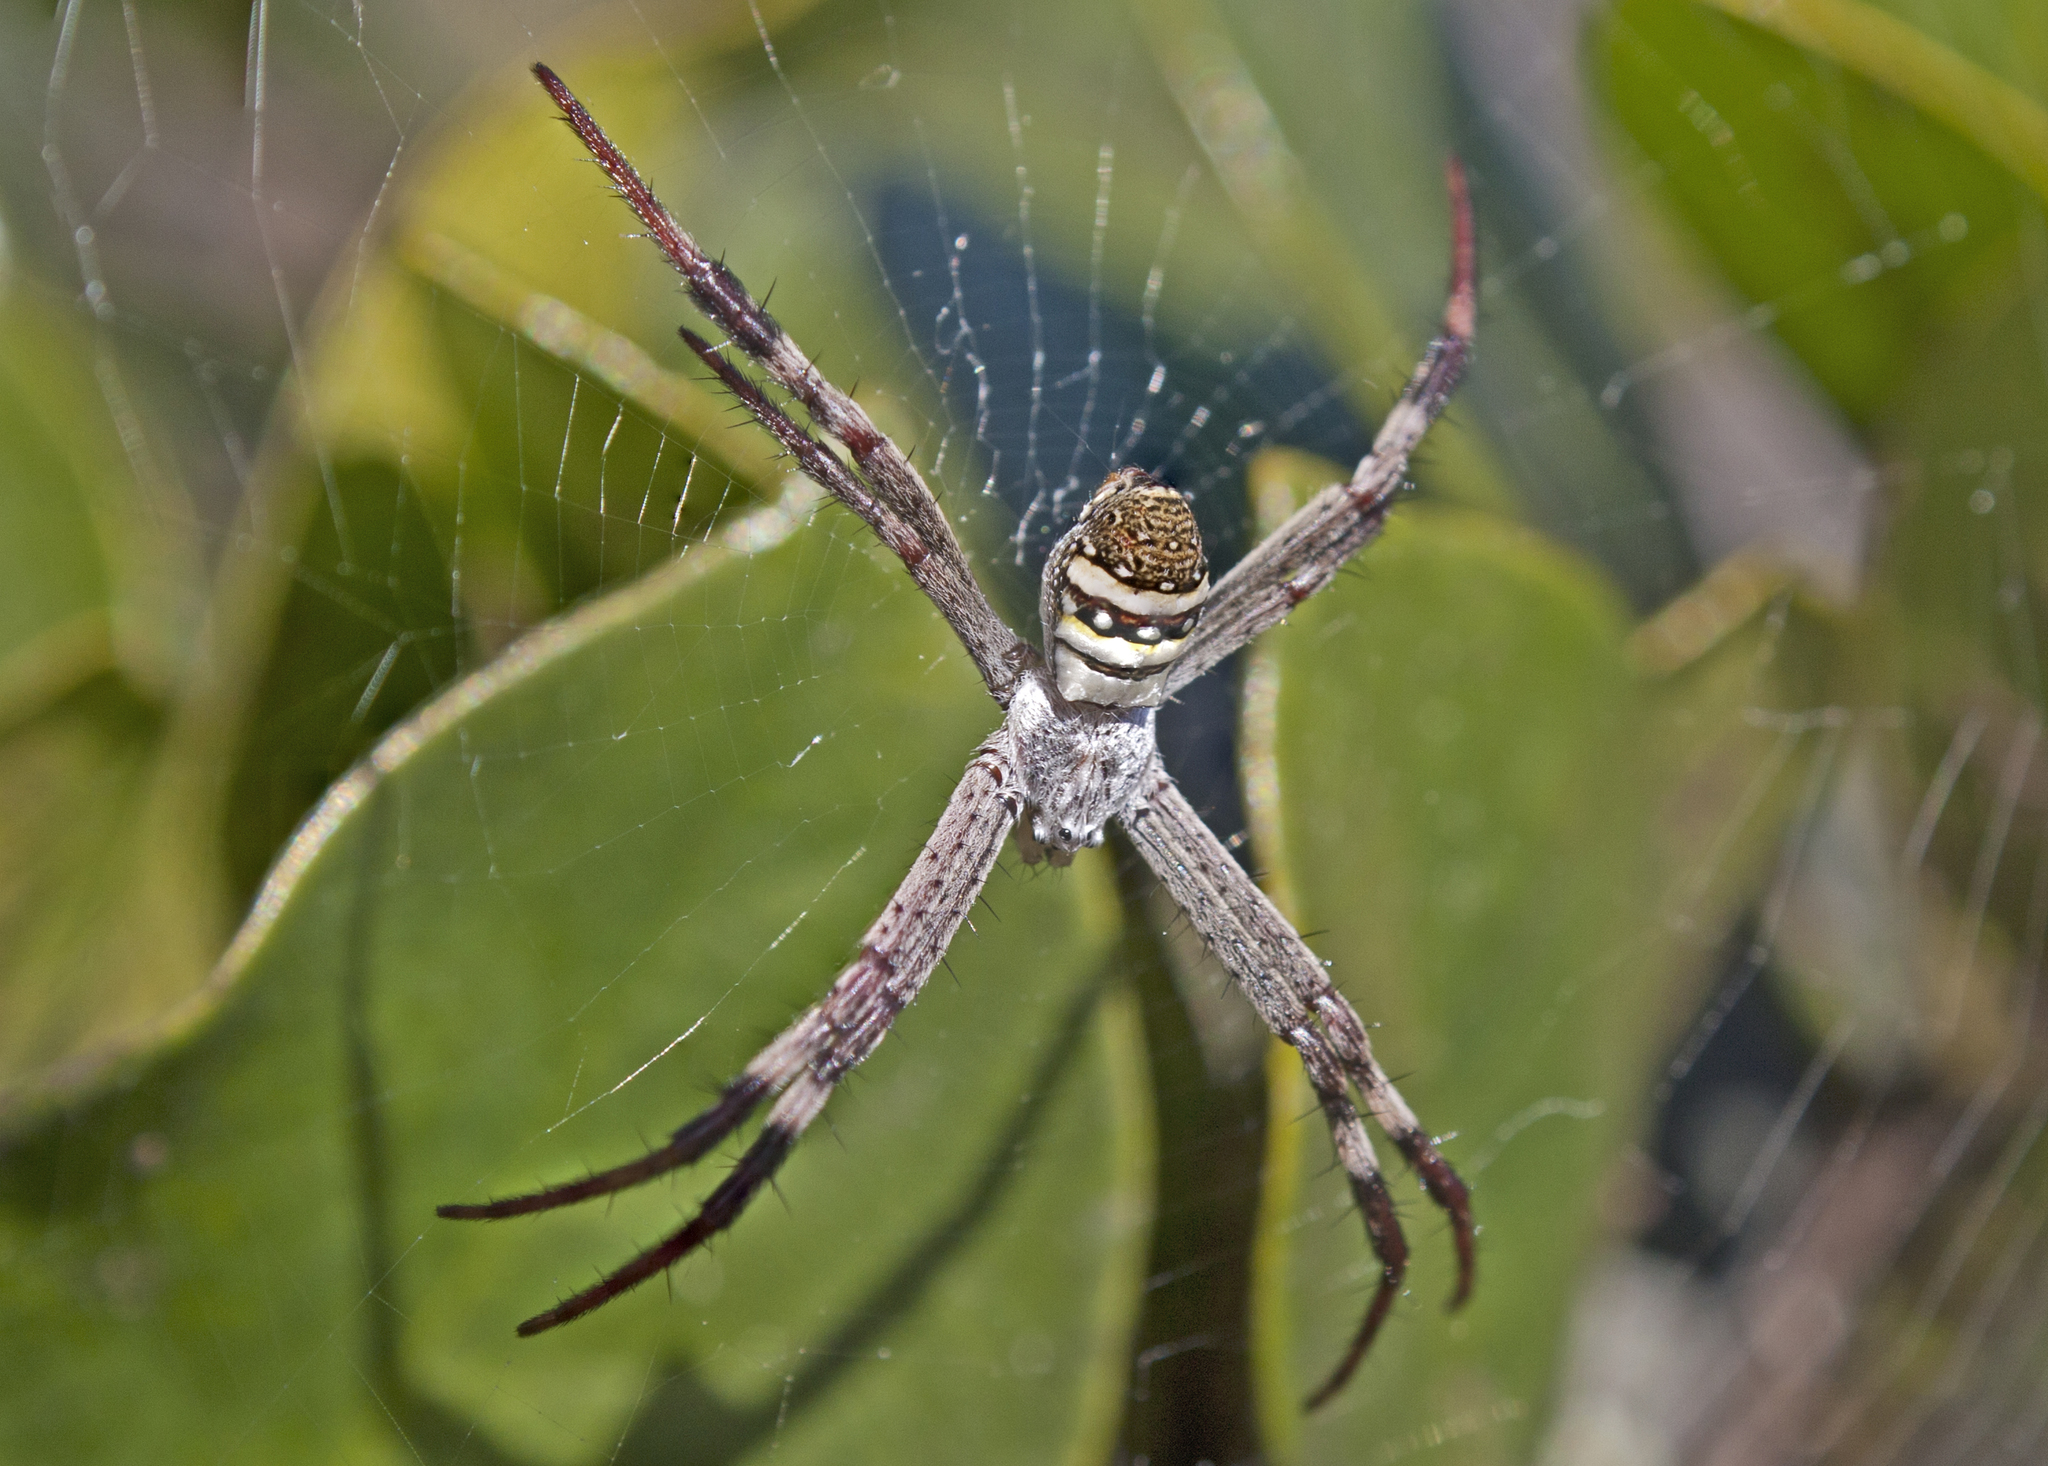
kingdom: Animalia
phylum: Arthropoda
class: Arachnida
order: Araneae
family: Araneidae
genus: Argiope
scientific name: Argiope keyserlingi
